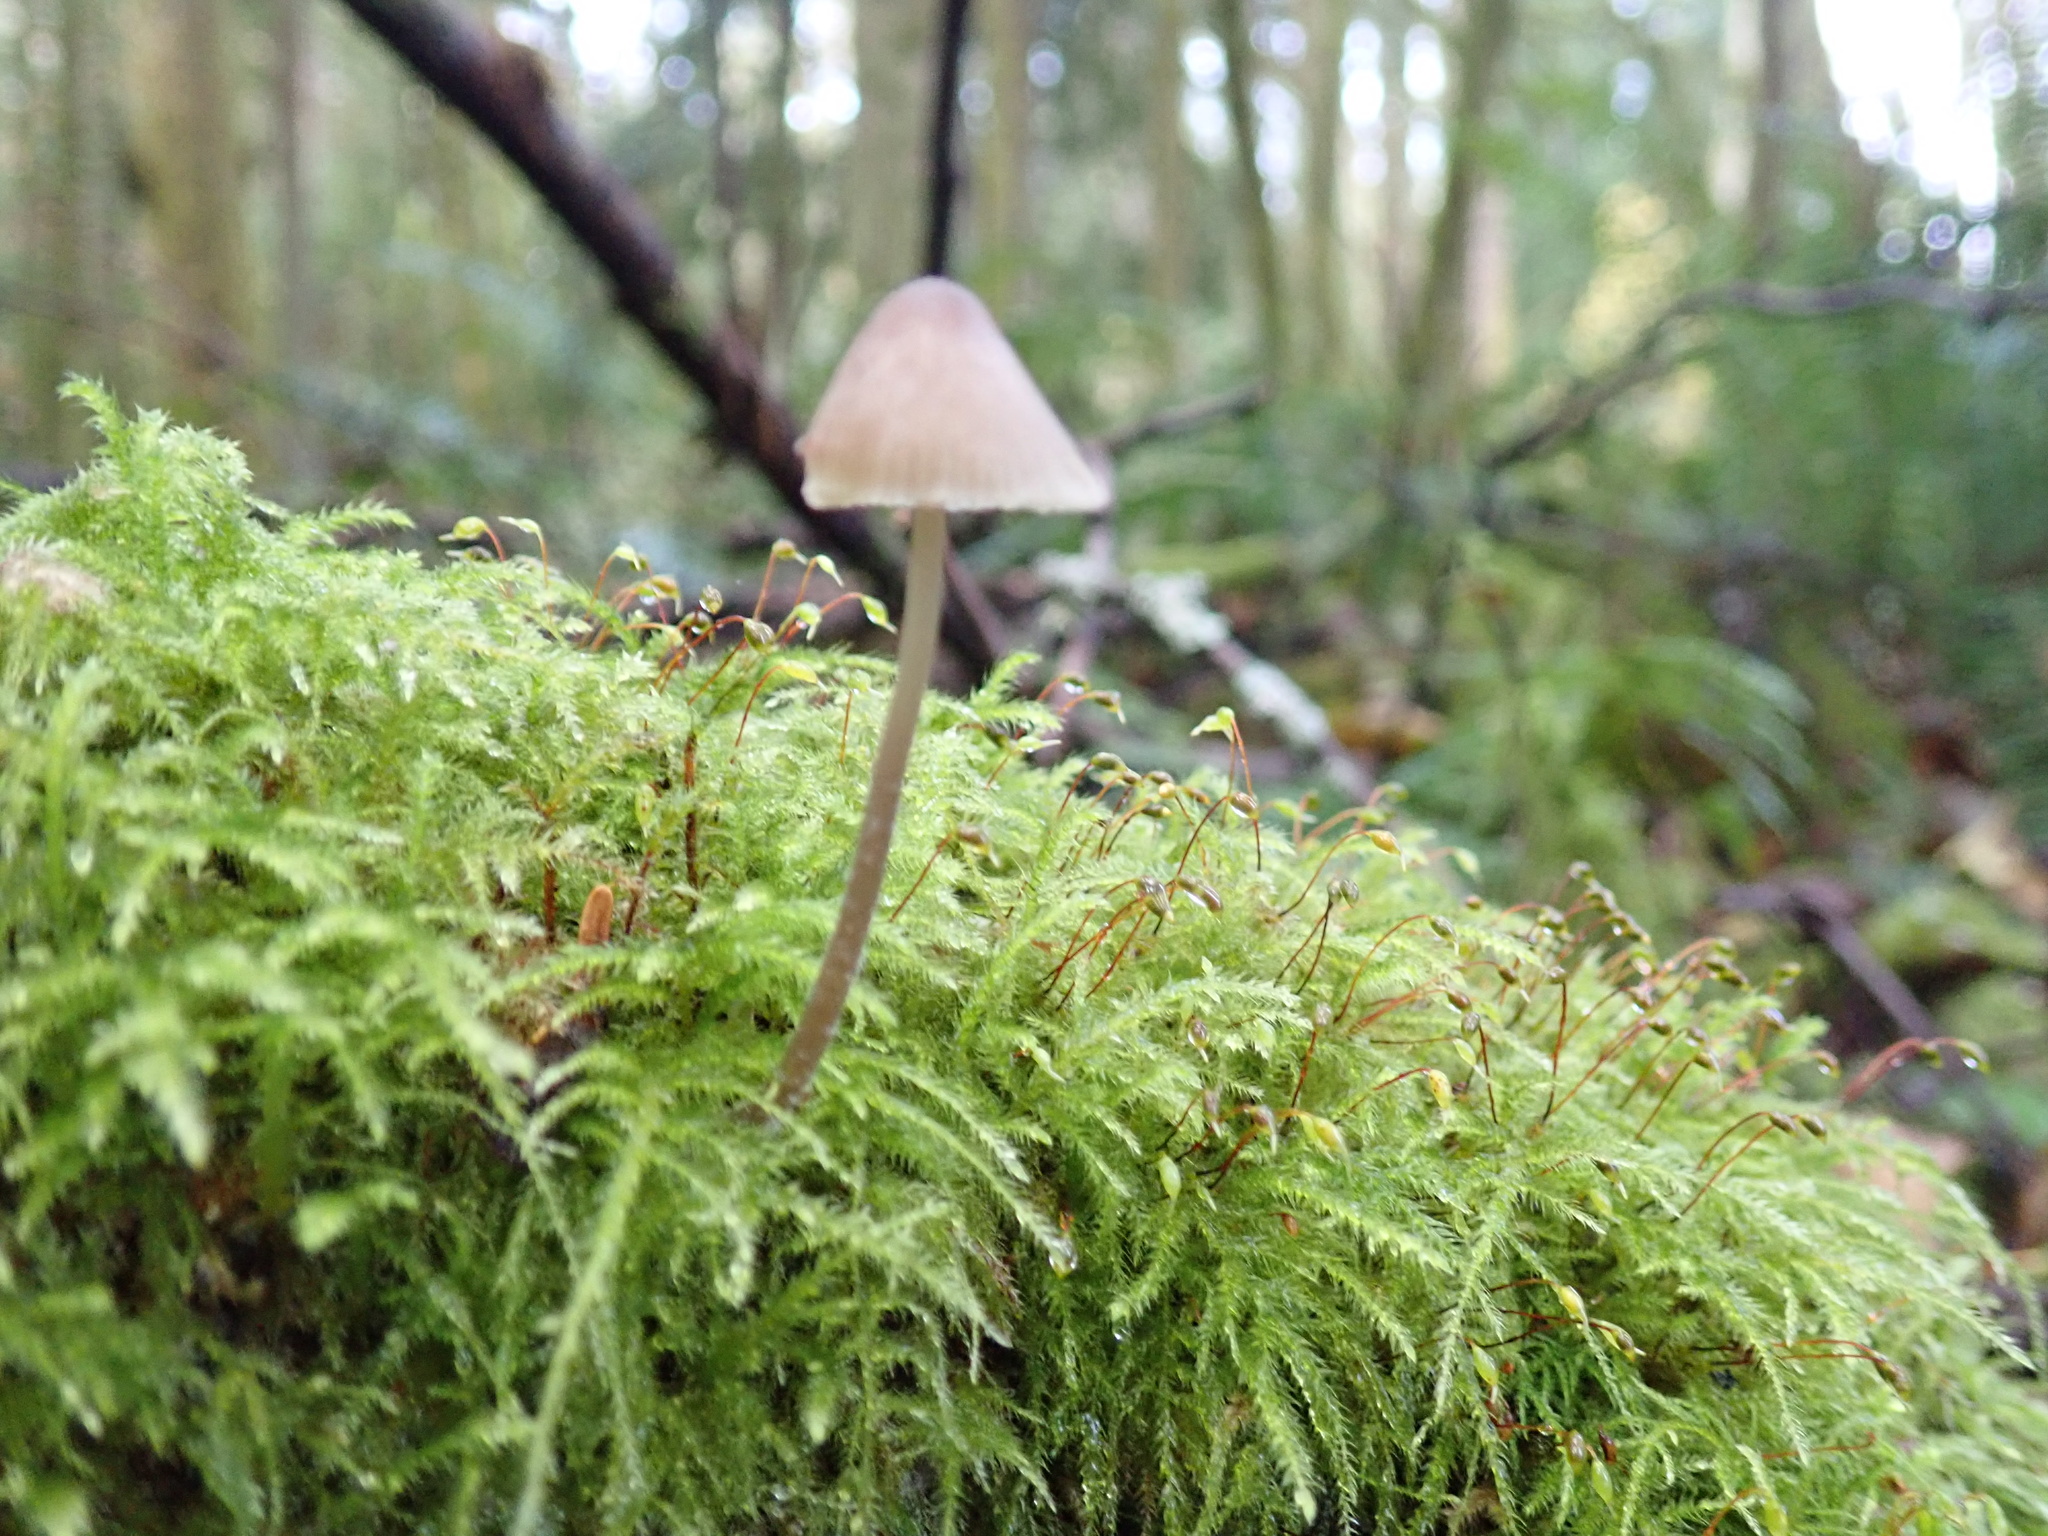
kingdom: Fungi
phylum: Basidiomycota
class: Agaricomycetes
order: Agaricales
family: Mycenaceae
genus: Mycena
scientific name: Mycena galericulata
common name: Bonnet mycena
